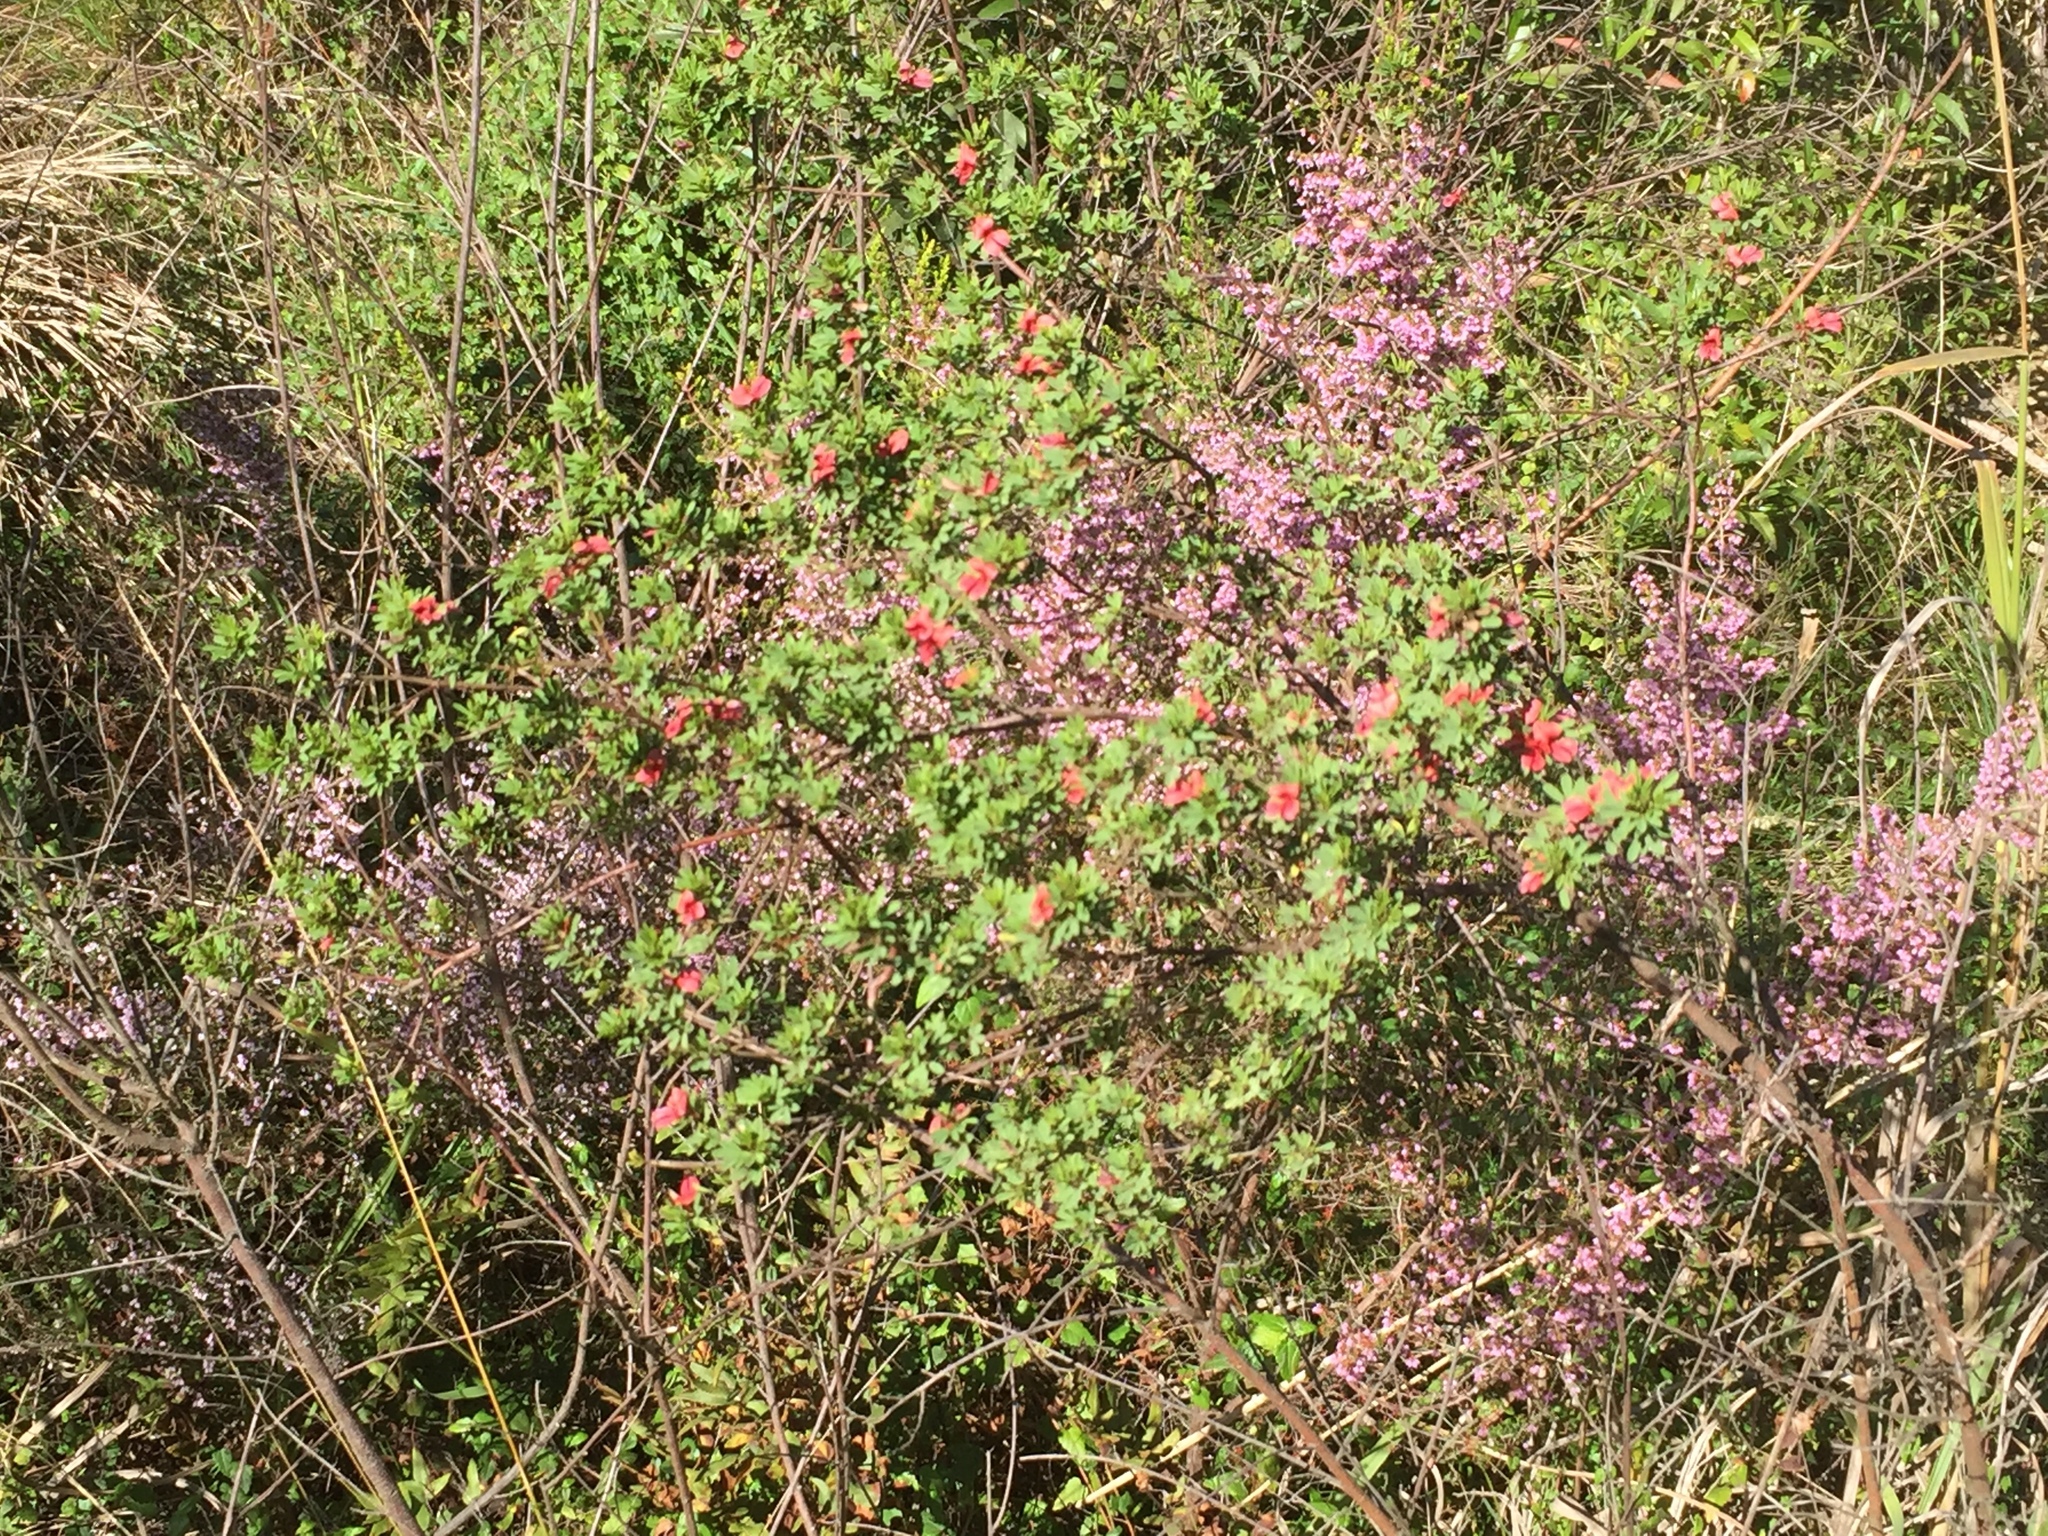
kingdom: Plantae
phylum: Tracheophyta
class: Magnoliopsida
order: Fabales
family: Fabaceae
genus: Indigofera
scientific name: Indigofera stricta
